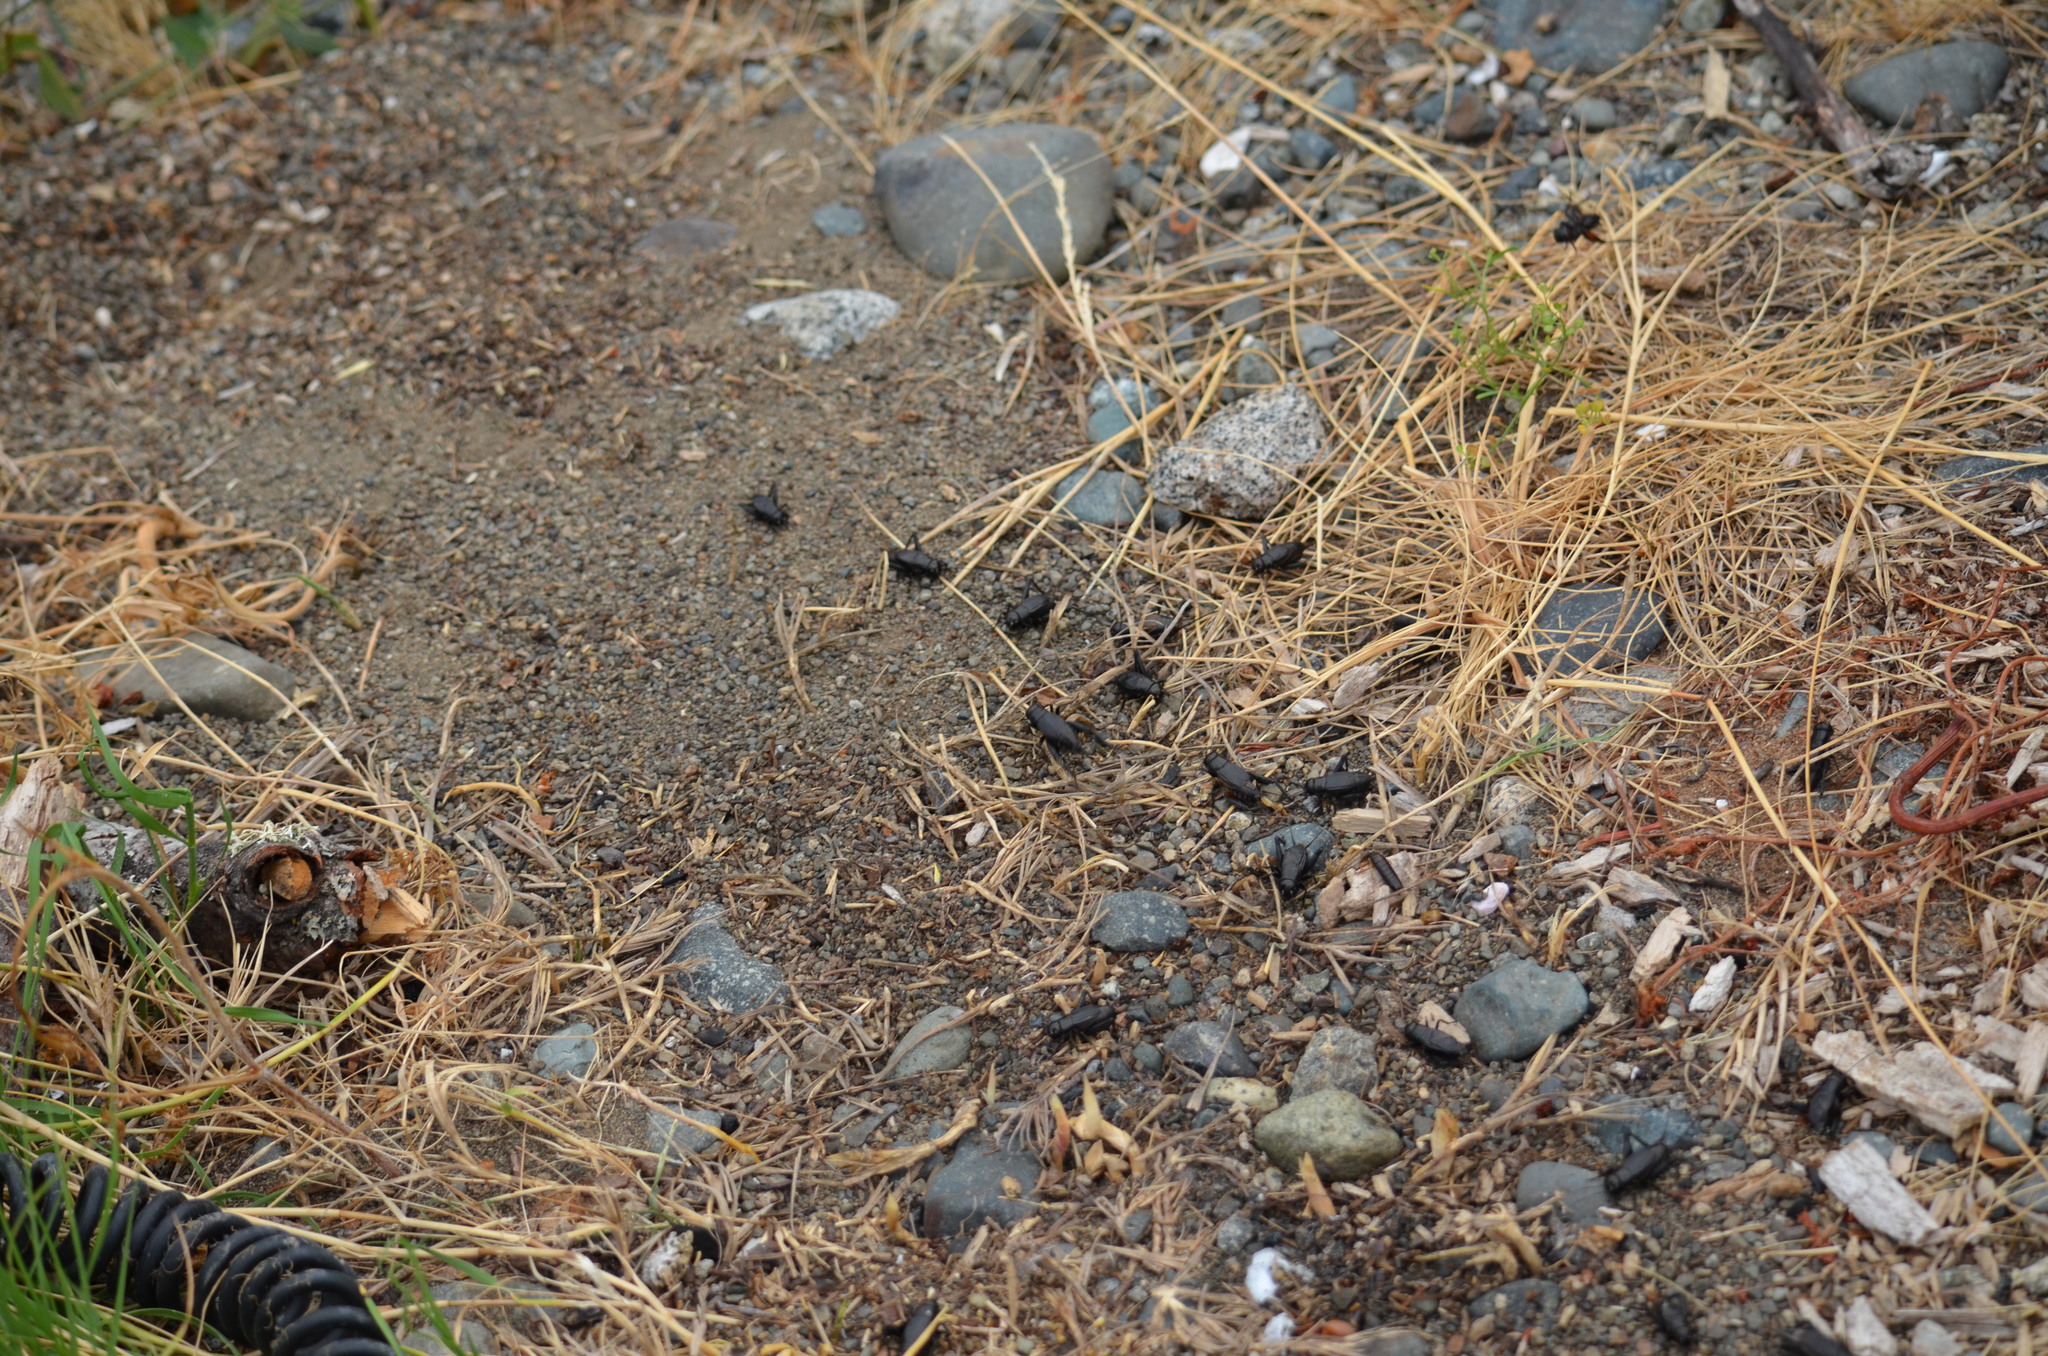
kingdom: Animalia
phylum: Arthropoda
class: Insecta
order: Orthoptera
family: Gryllidae
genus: Gryllus
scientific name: Gryllus pennsylvanicus
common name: Fall field cricket
